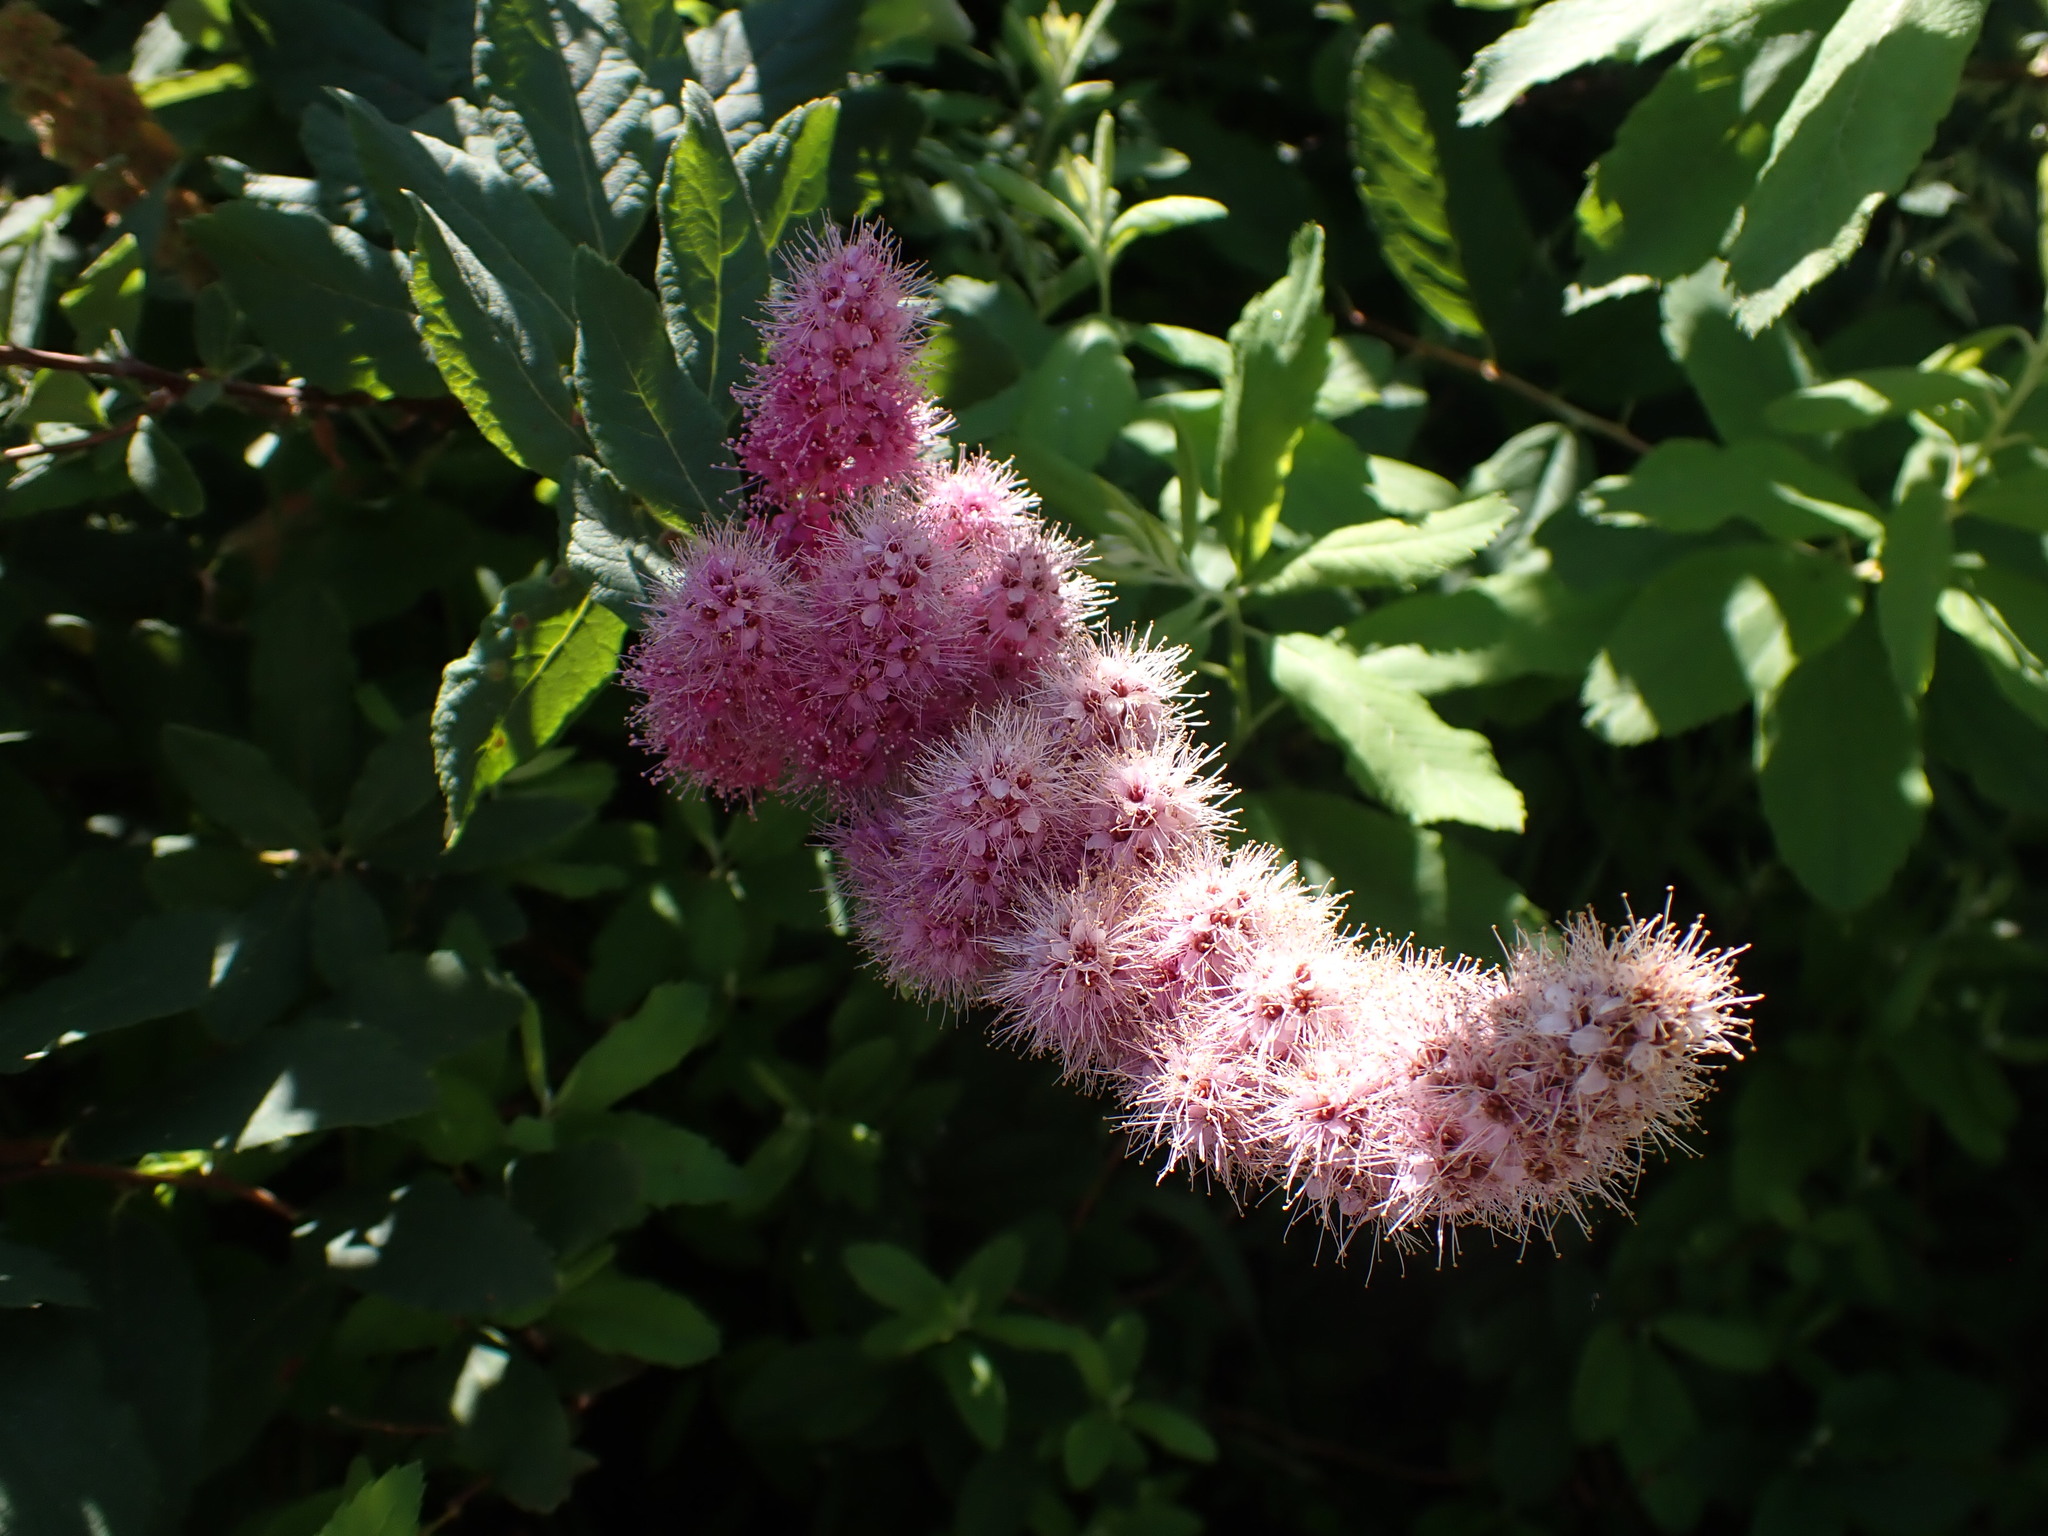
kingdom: Plantae
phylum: Tracheophyta
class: Magnoliopsida
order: Rosales
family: Rosaceae
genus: Spiraea
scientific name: Spiraea douglasii
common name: Steeplebush
